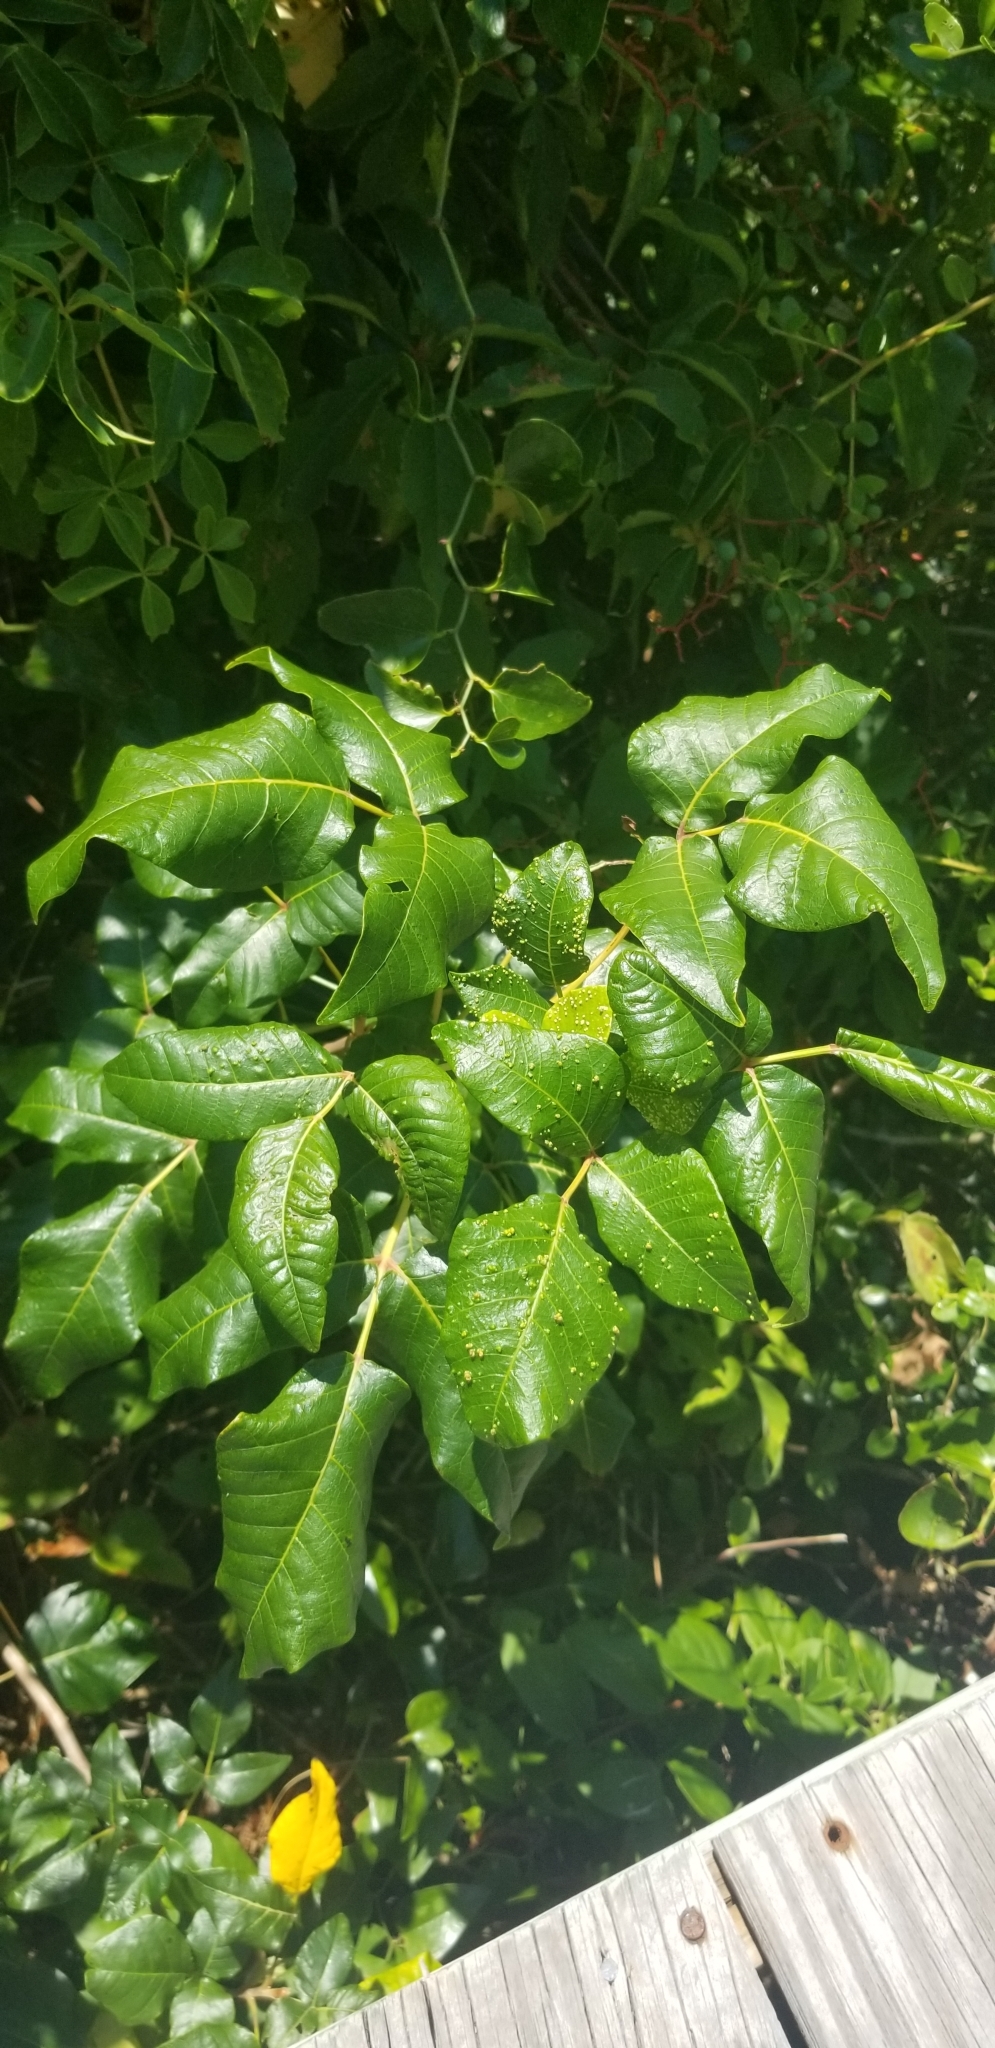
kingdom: Plantae
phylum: Tracheophyta
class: Magnoliopsida
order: Sapindales
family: Anacardiaceae
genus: Toxicodendron
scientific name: Toxicodendron radicans
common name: Poison ivy
